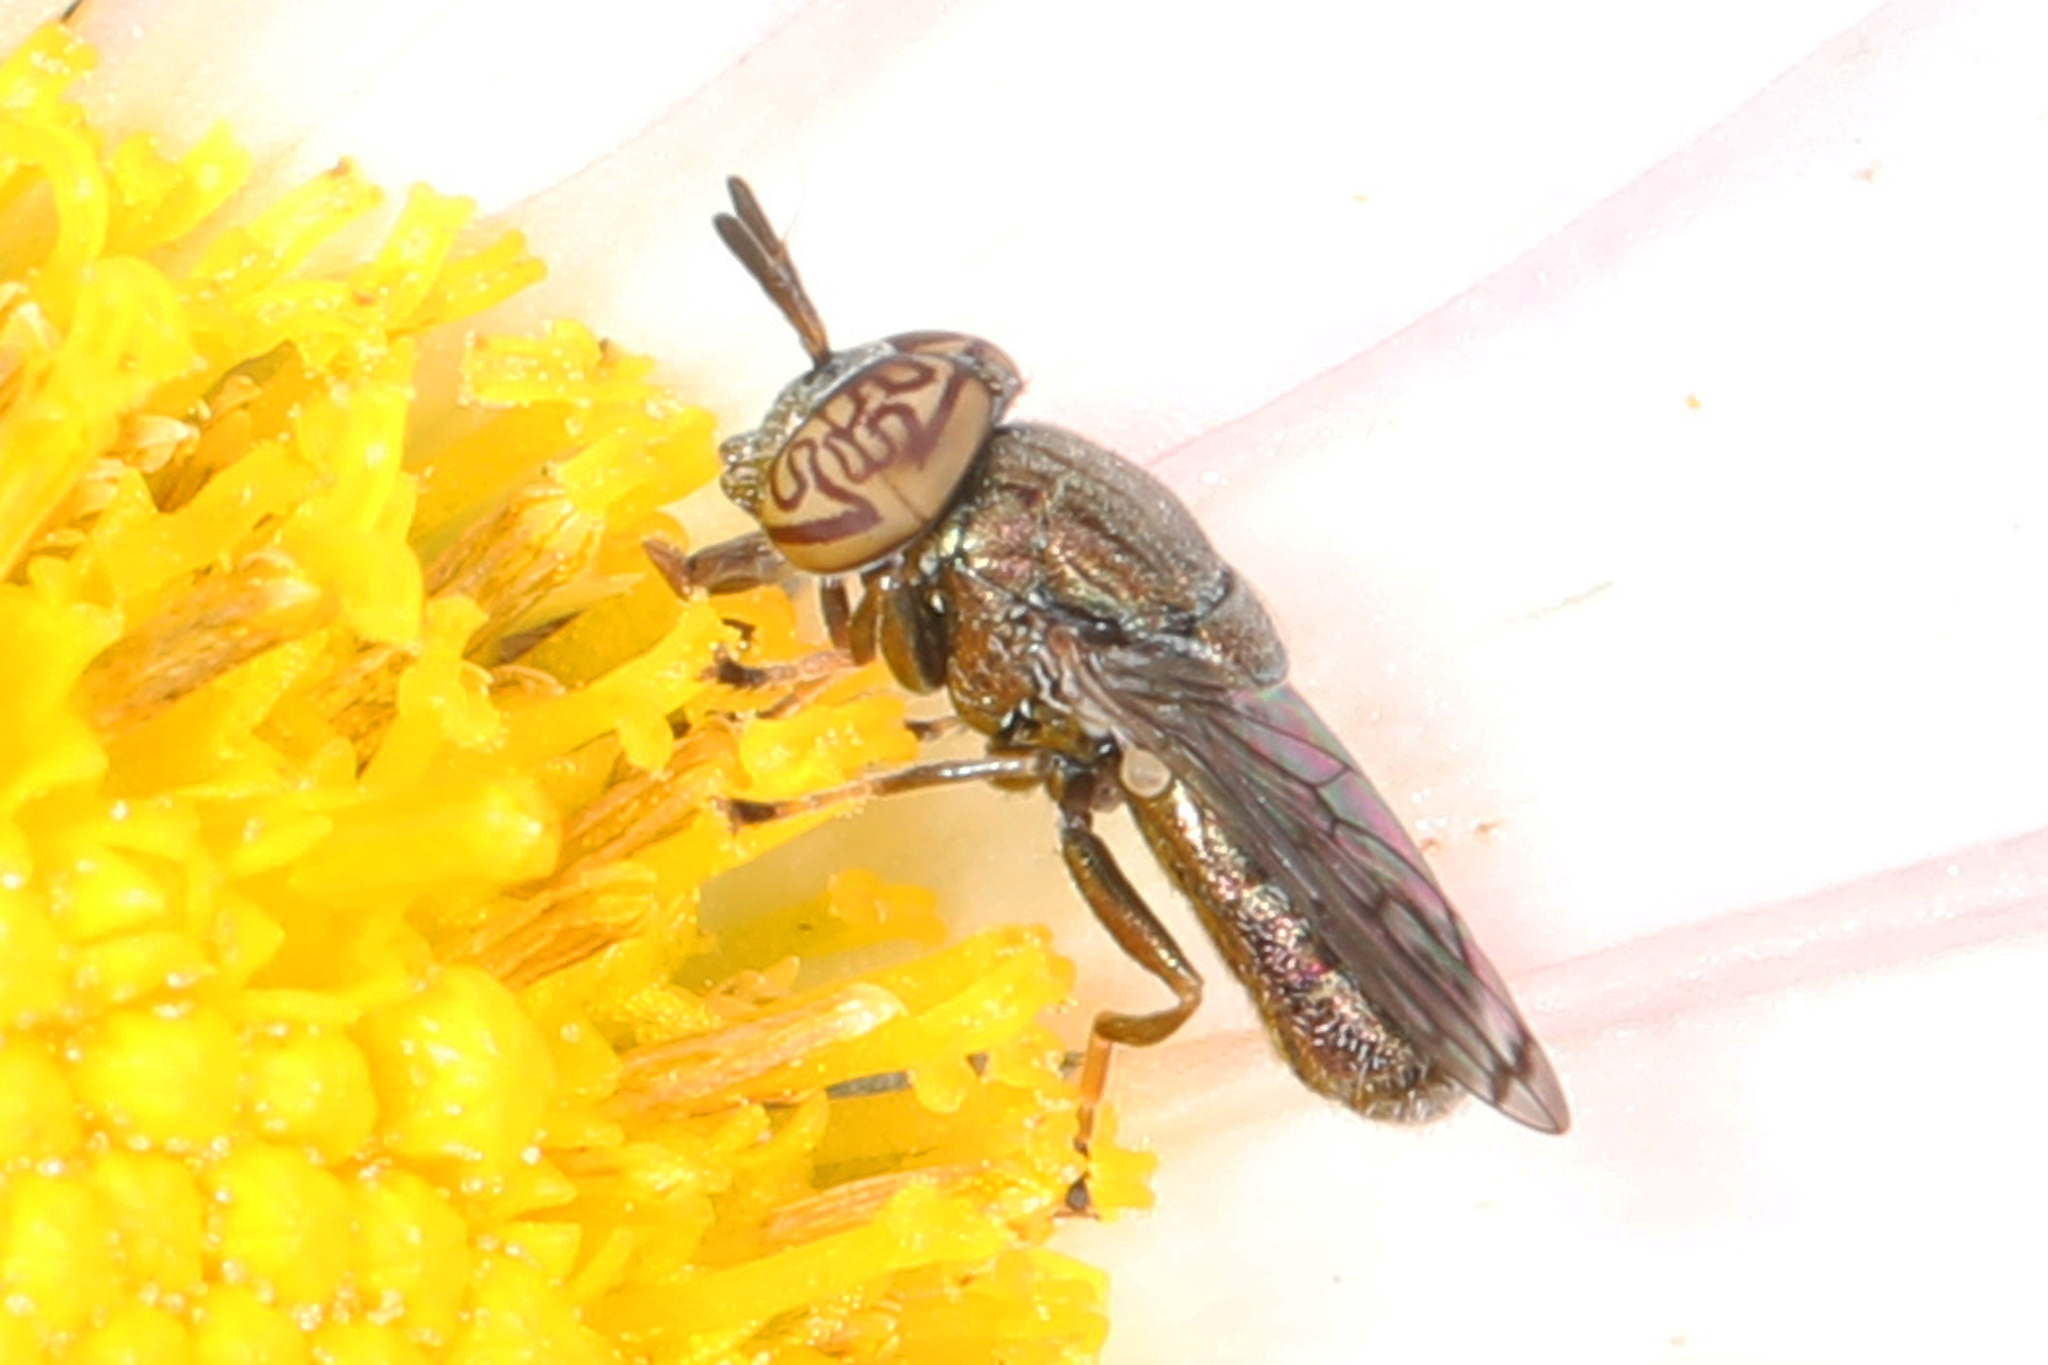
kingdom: Animalia
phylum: Arthropoda
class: Insecta
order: Diptera
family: Syrphidae
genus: Orthonevra
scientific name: Orthonevra nitida
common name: Wavy mucksucker
